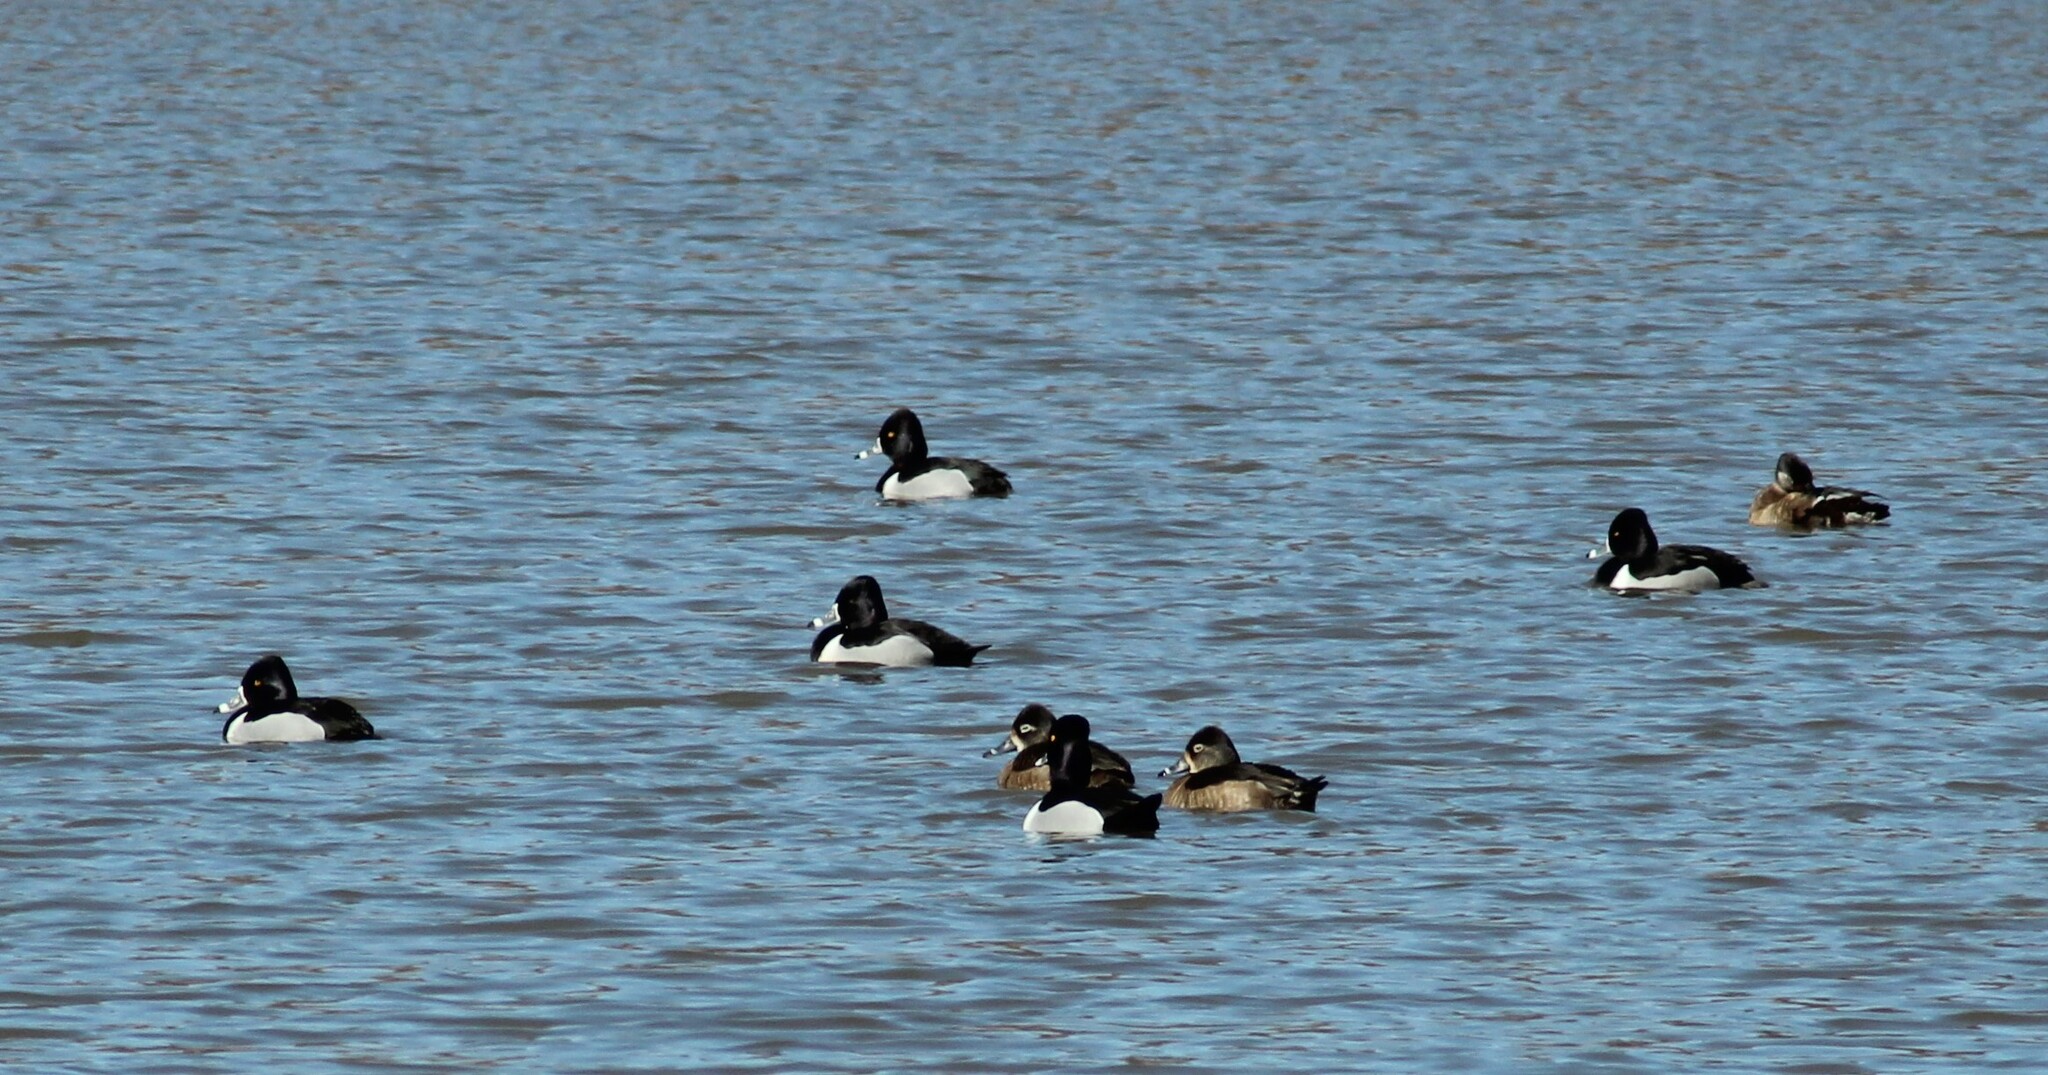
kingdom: Animalia
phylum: Chordata
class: Aves
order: Anseriformes
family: Anatidae
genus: Aythya
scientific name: Aythya collaris
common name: Ring-necked duck
